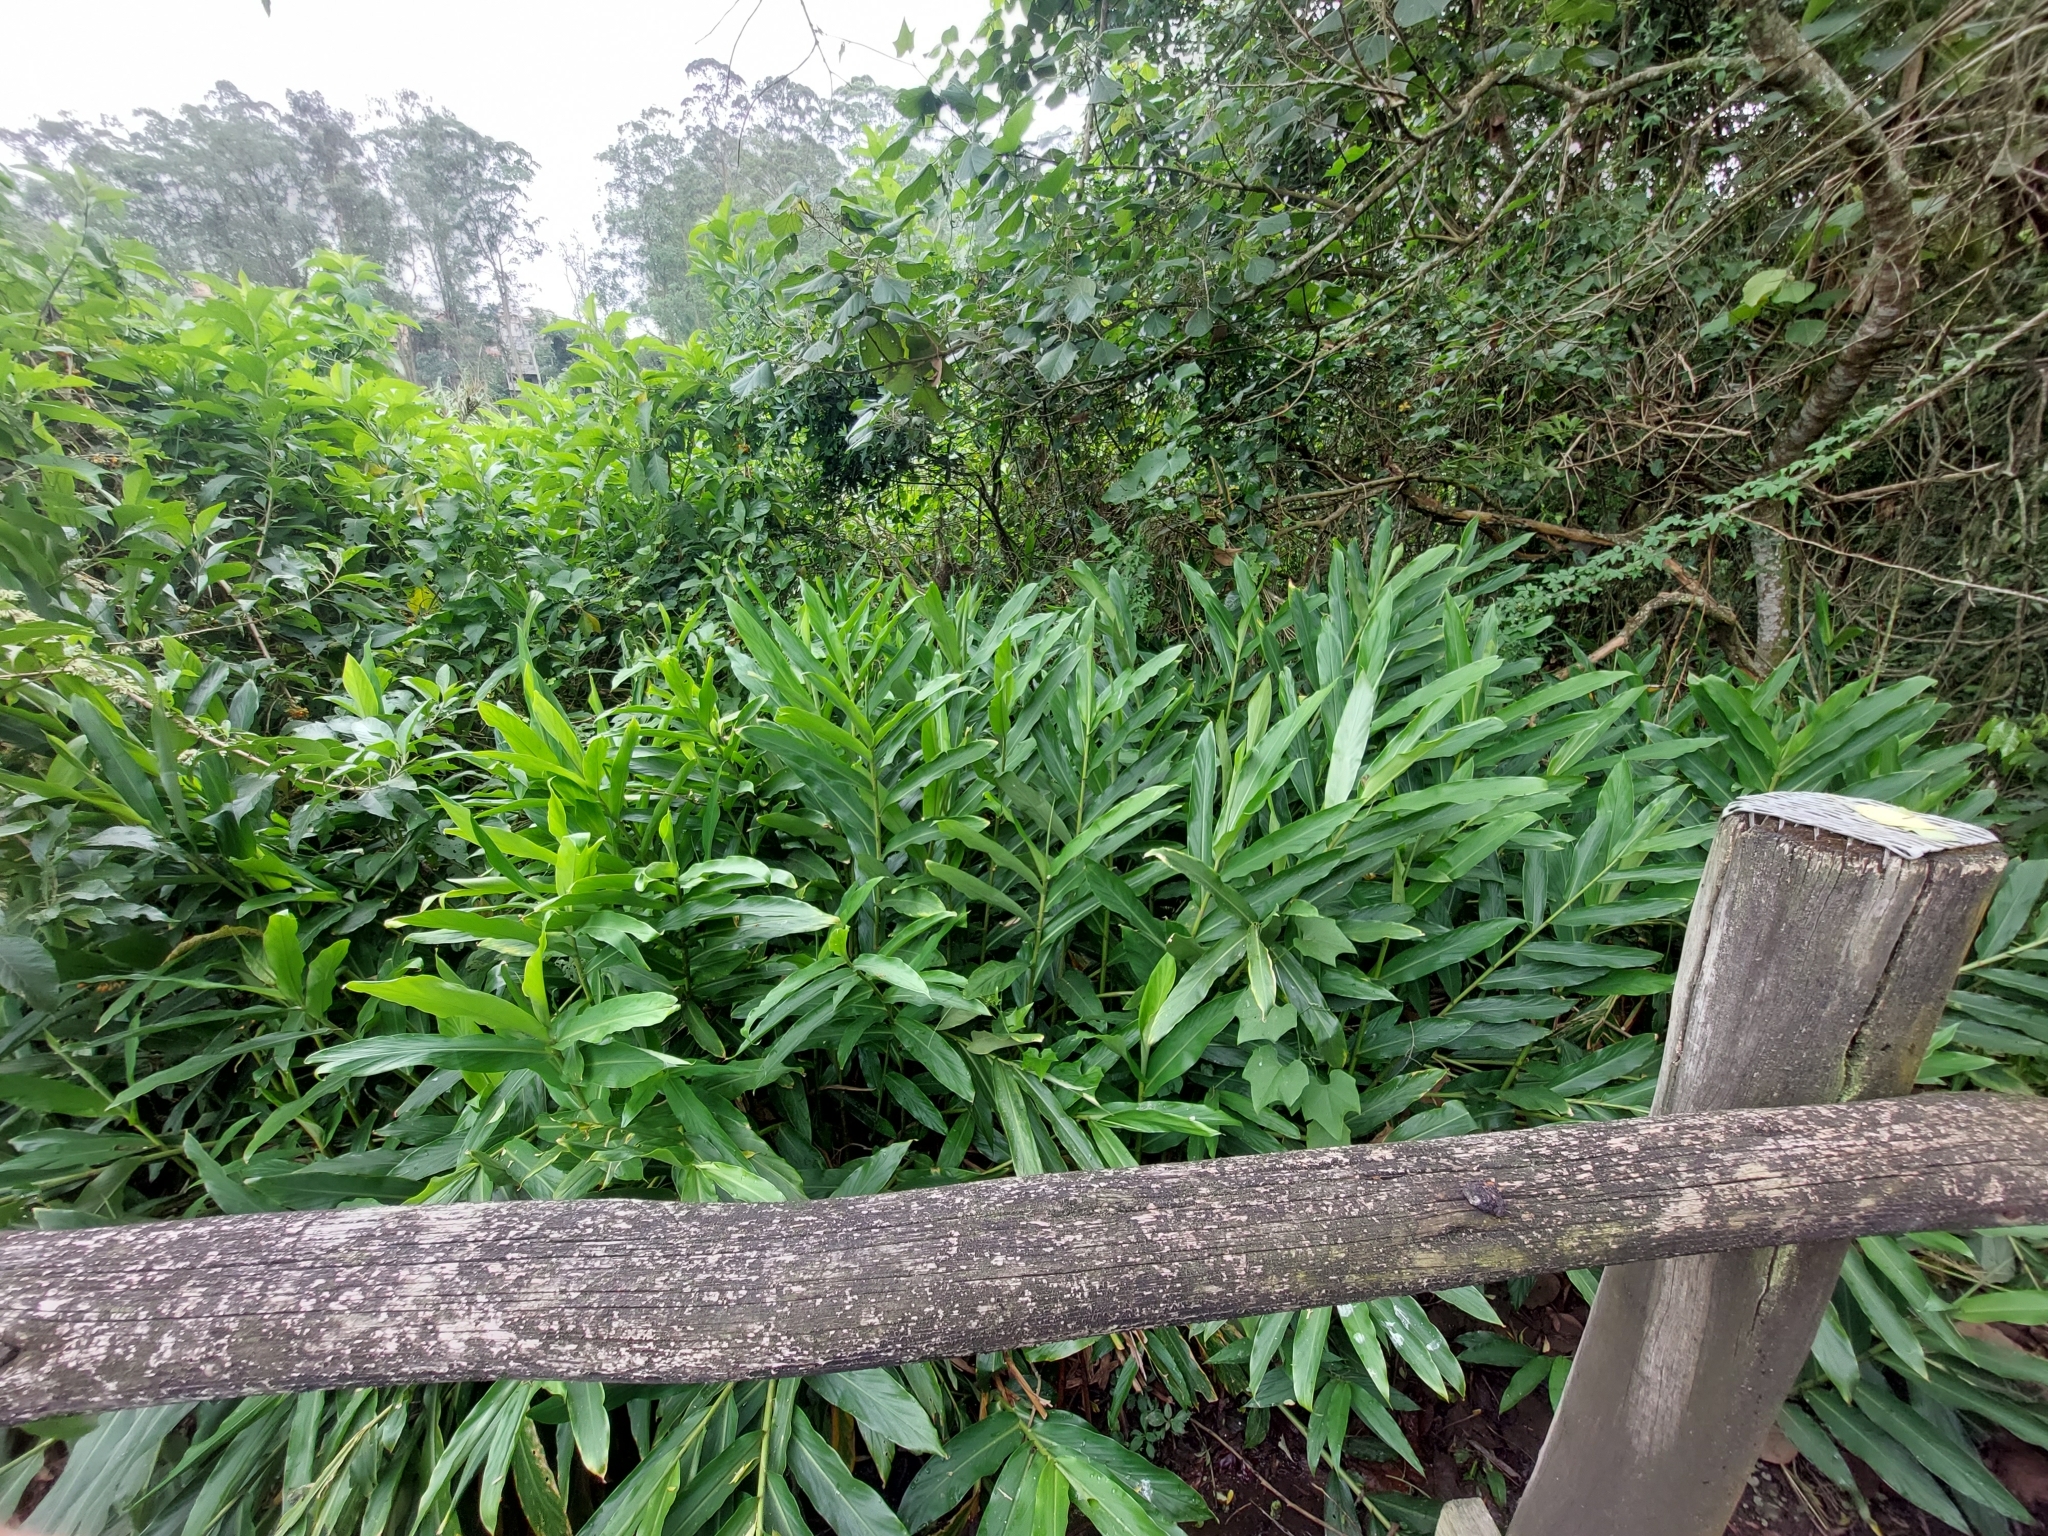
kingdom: Plantae
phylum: Tracheophyta
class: Liliopsida
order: Zingiberales
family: Zingiberaceae
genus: Hedychium
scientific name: Hedychium coronarium
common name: White garland-lily
